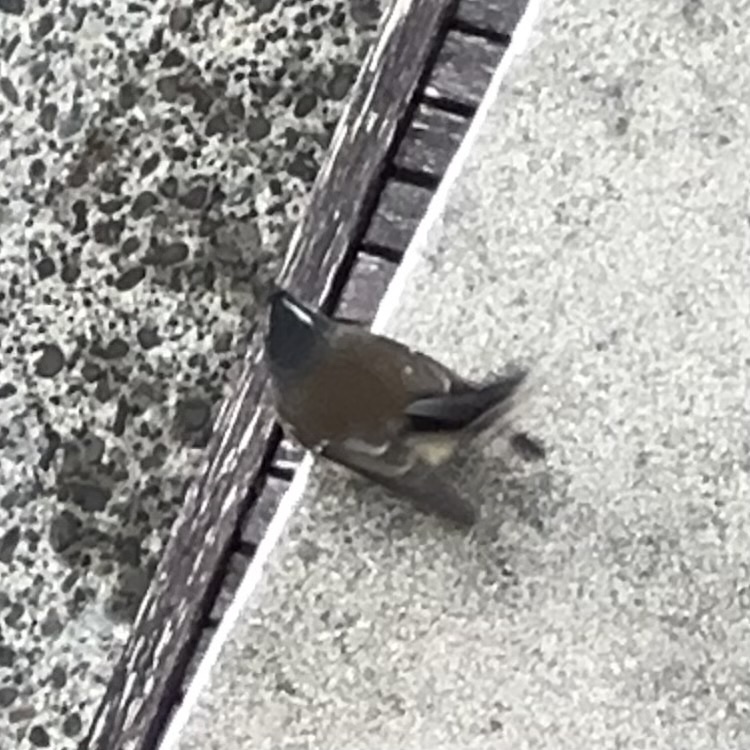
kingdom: Animalia
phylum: Chordata
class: Aves
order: Passeriformes
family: Rhipiduridae
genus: Rhipidura
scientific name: Rhipidura fuliginosa
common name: New zealand fantail
